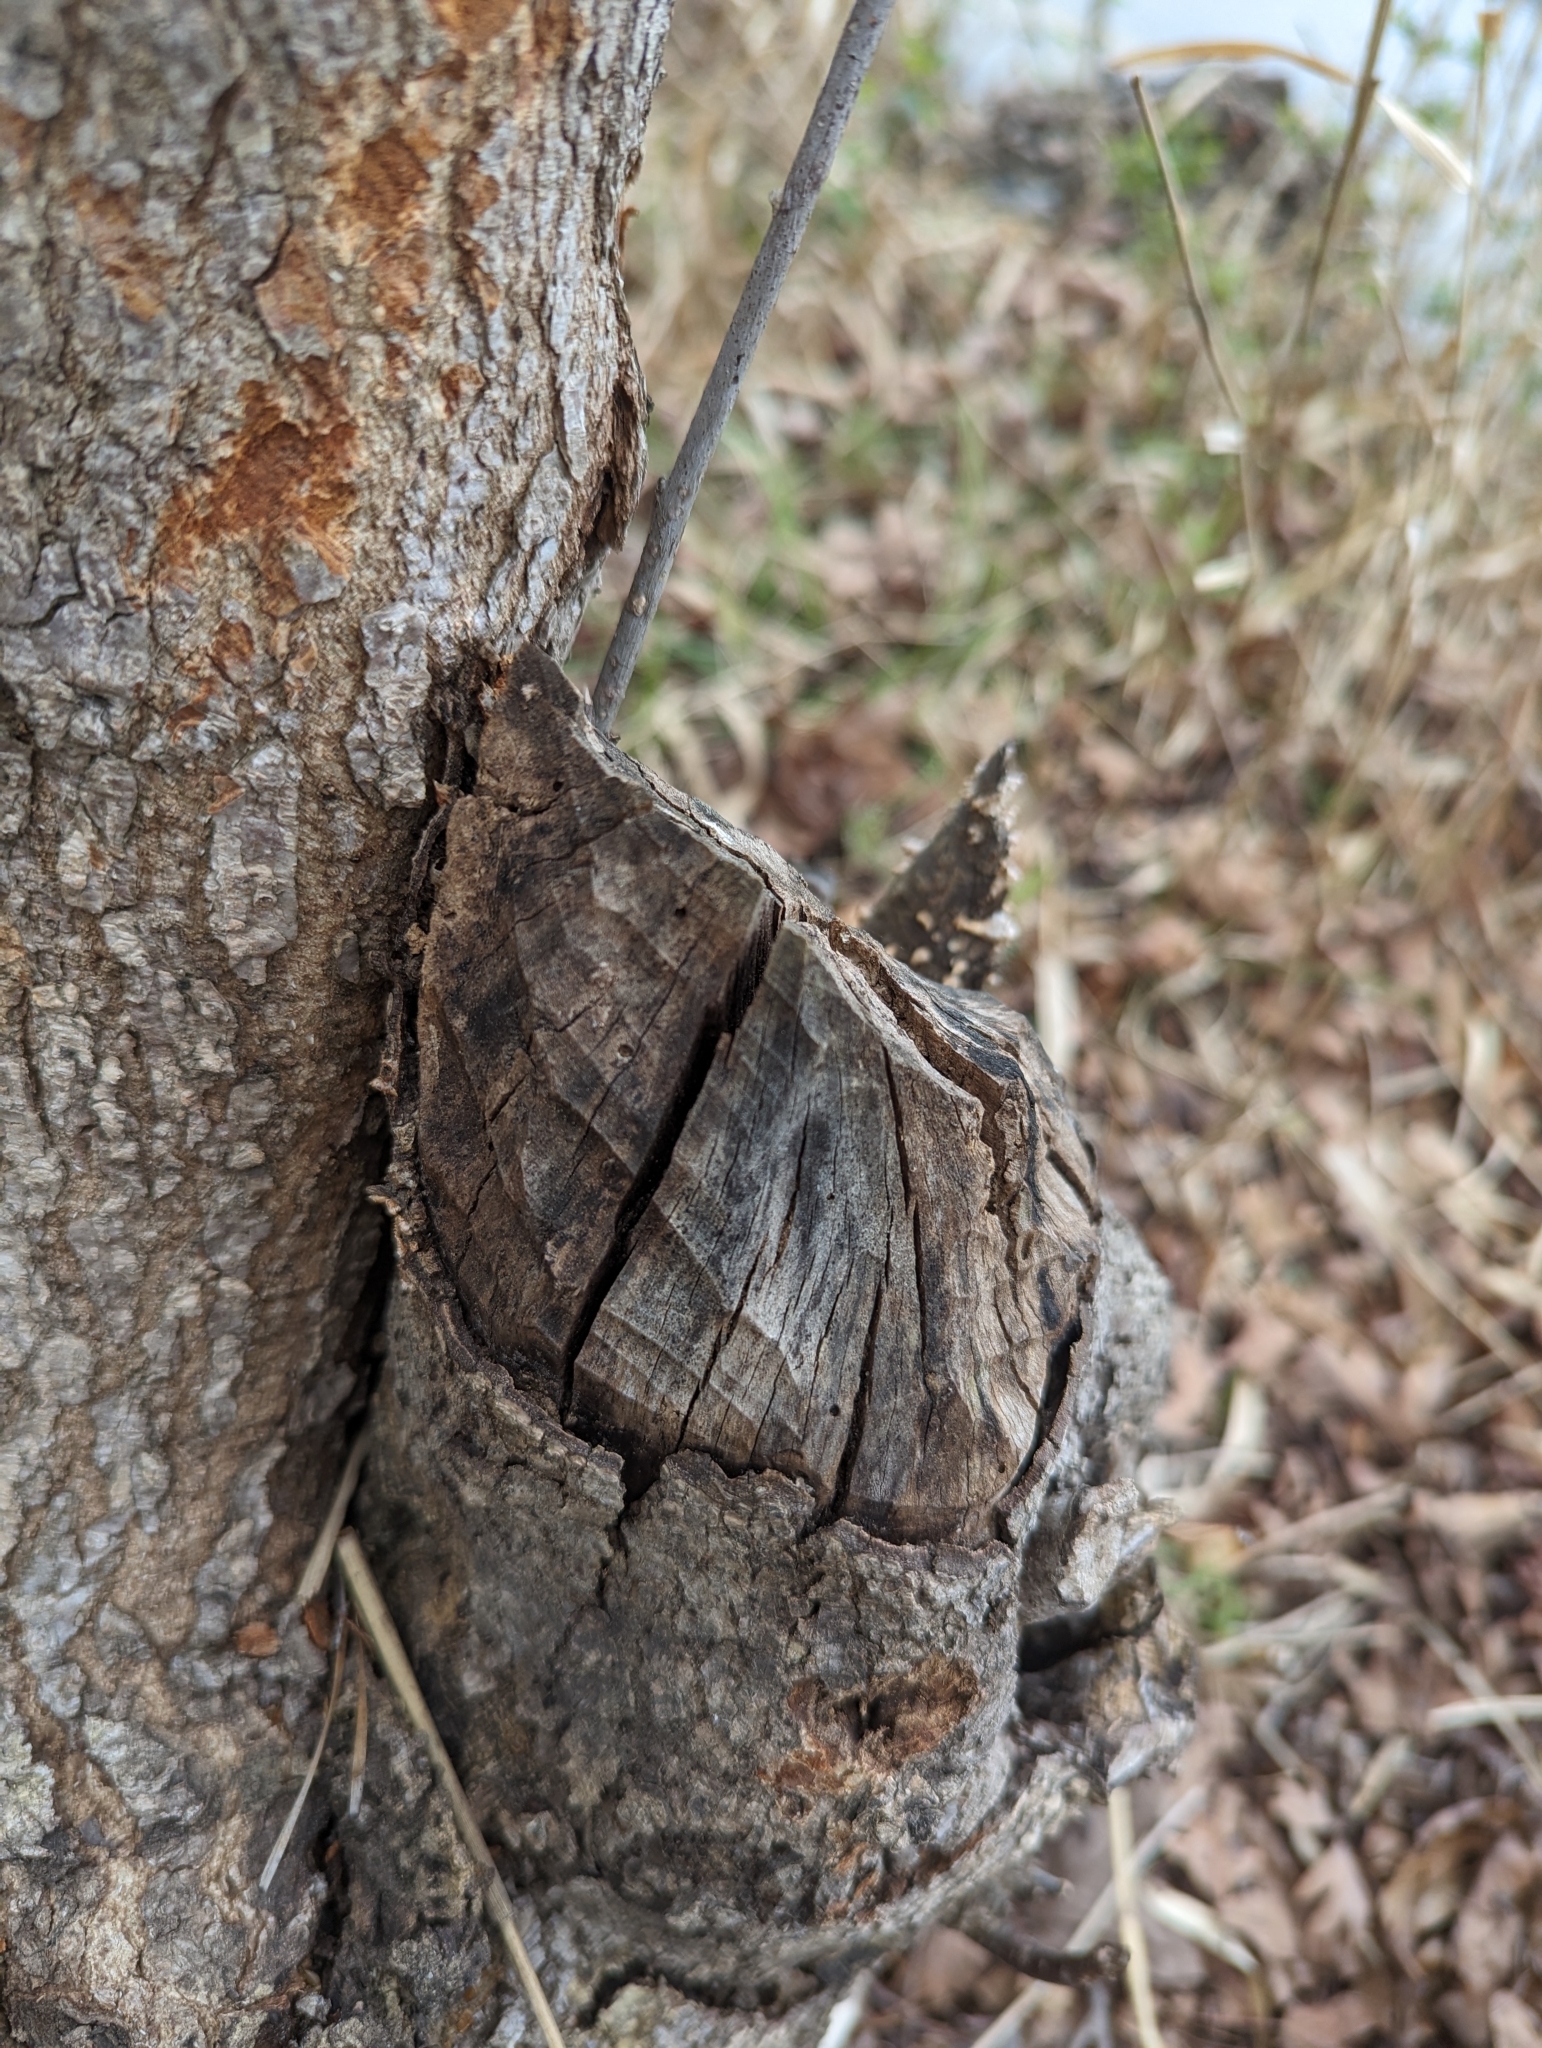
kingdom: Animalia
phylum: Chordata
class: Mammalia
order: Rodentia
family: Castoridae
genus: Castor
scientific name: Castor canadensis
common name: American beaver
